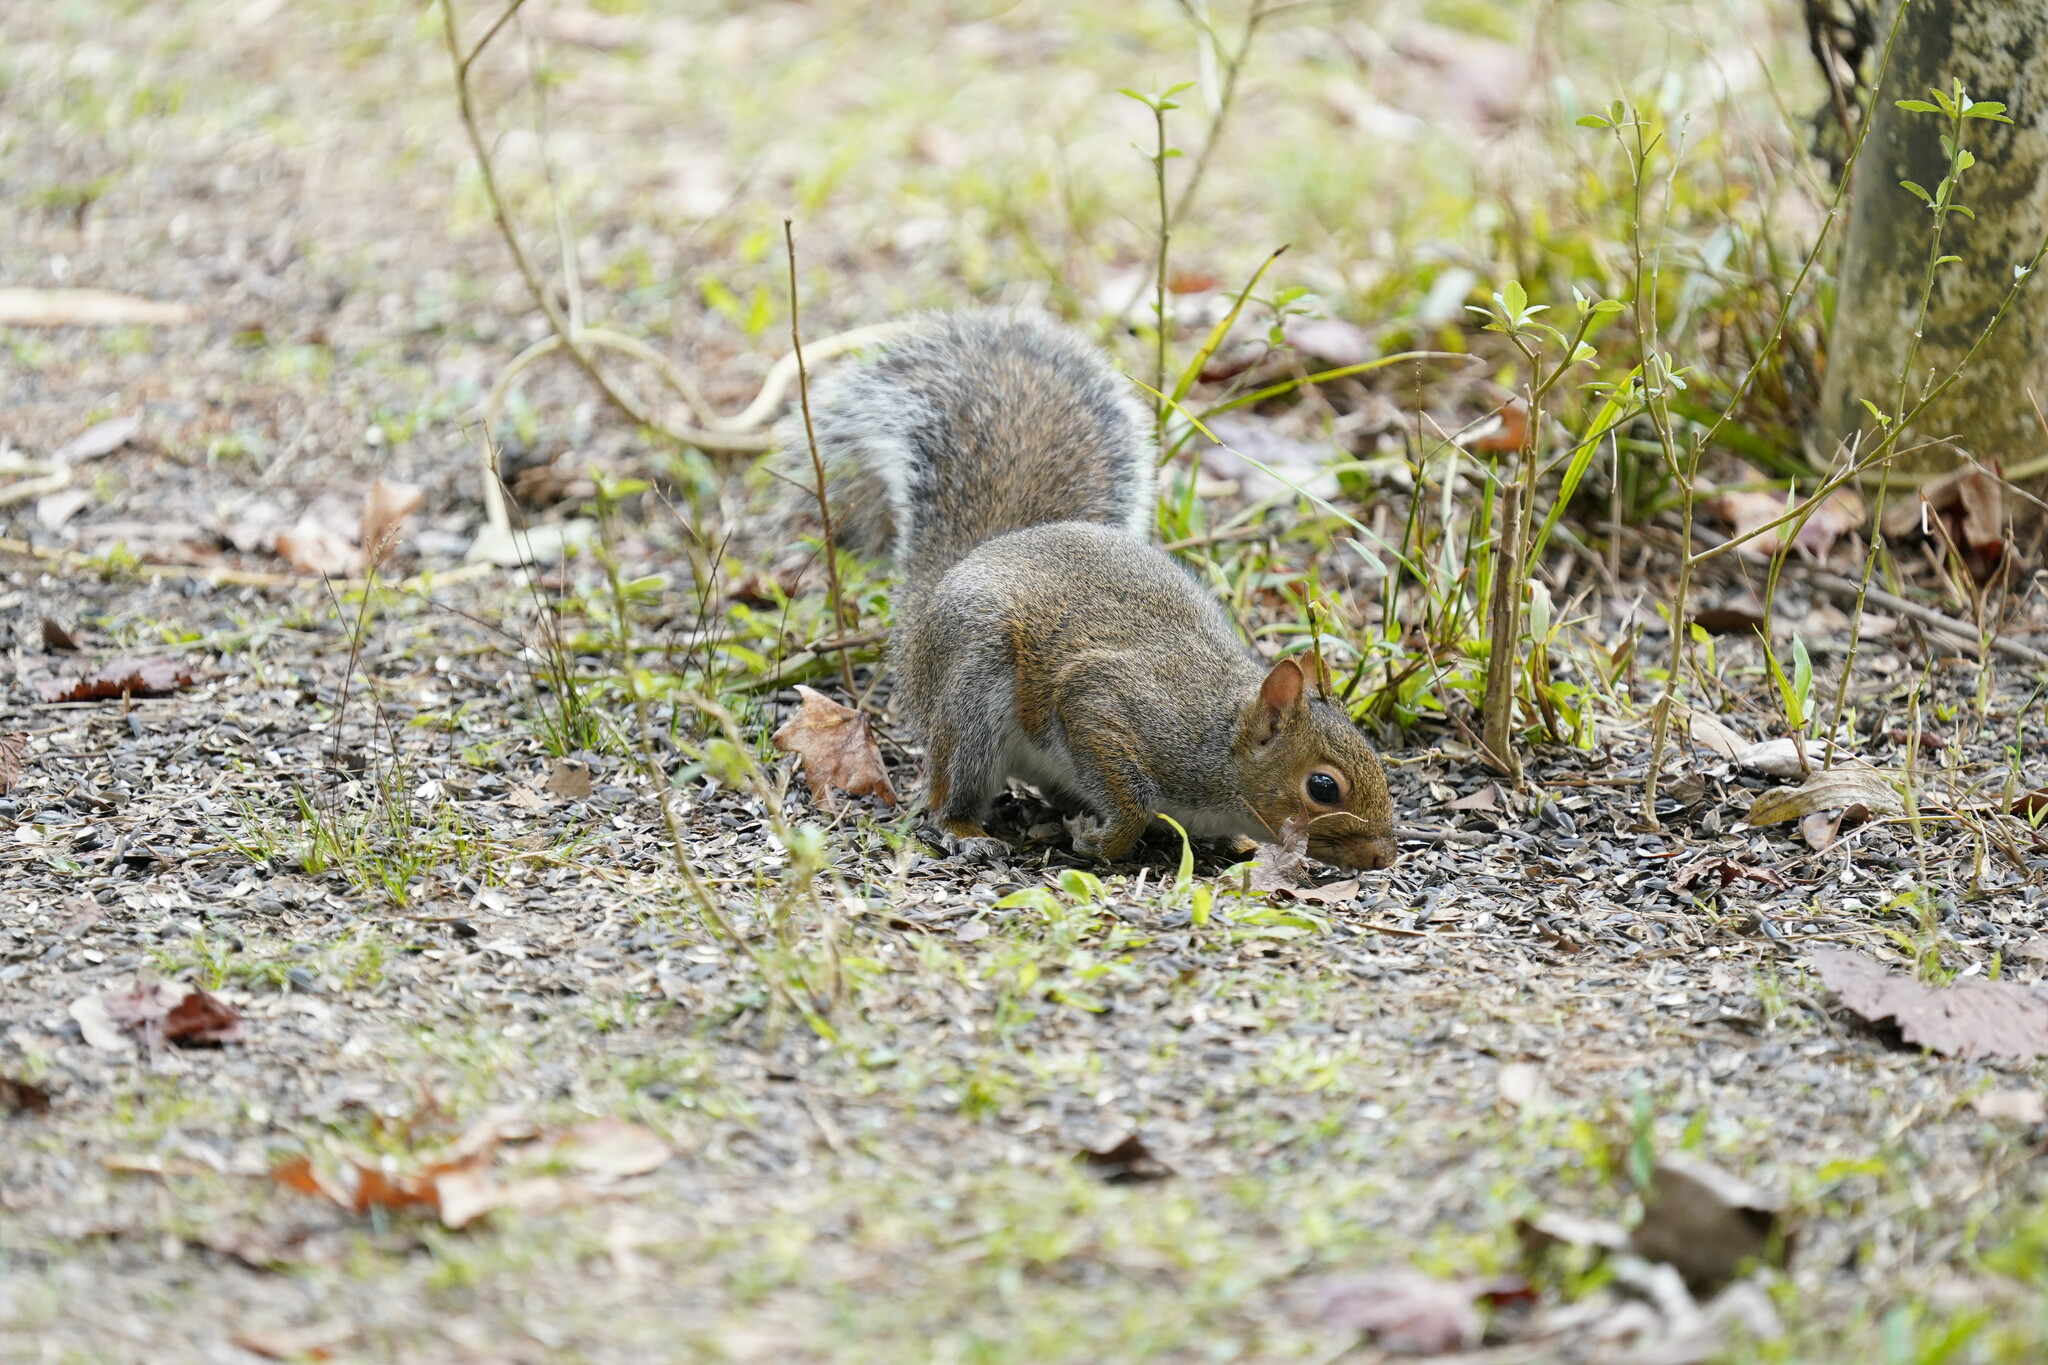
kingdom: Animalia
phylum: Chordata
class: Mammalia
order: Rodentia
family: Sciuridae
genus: Sciurus
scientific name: Sciurus carolinensis
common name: Eastern gray squirrel
